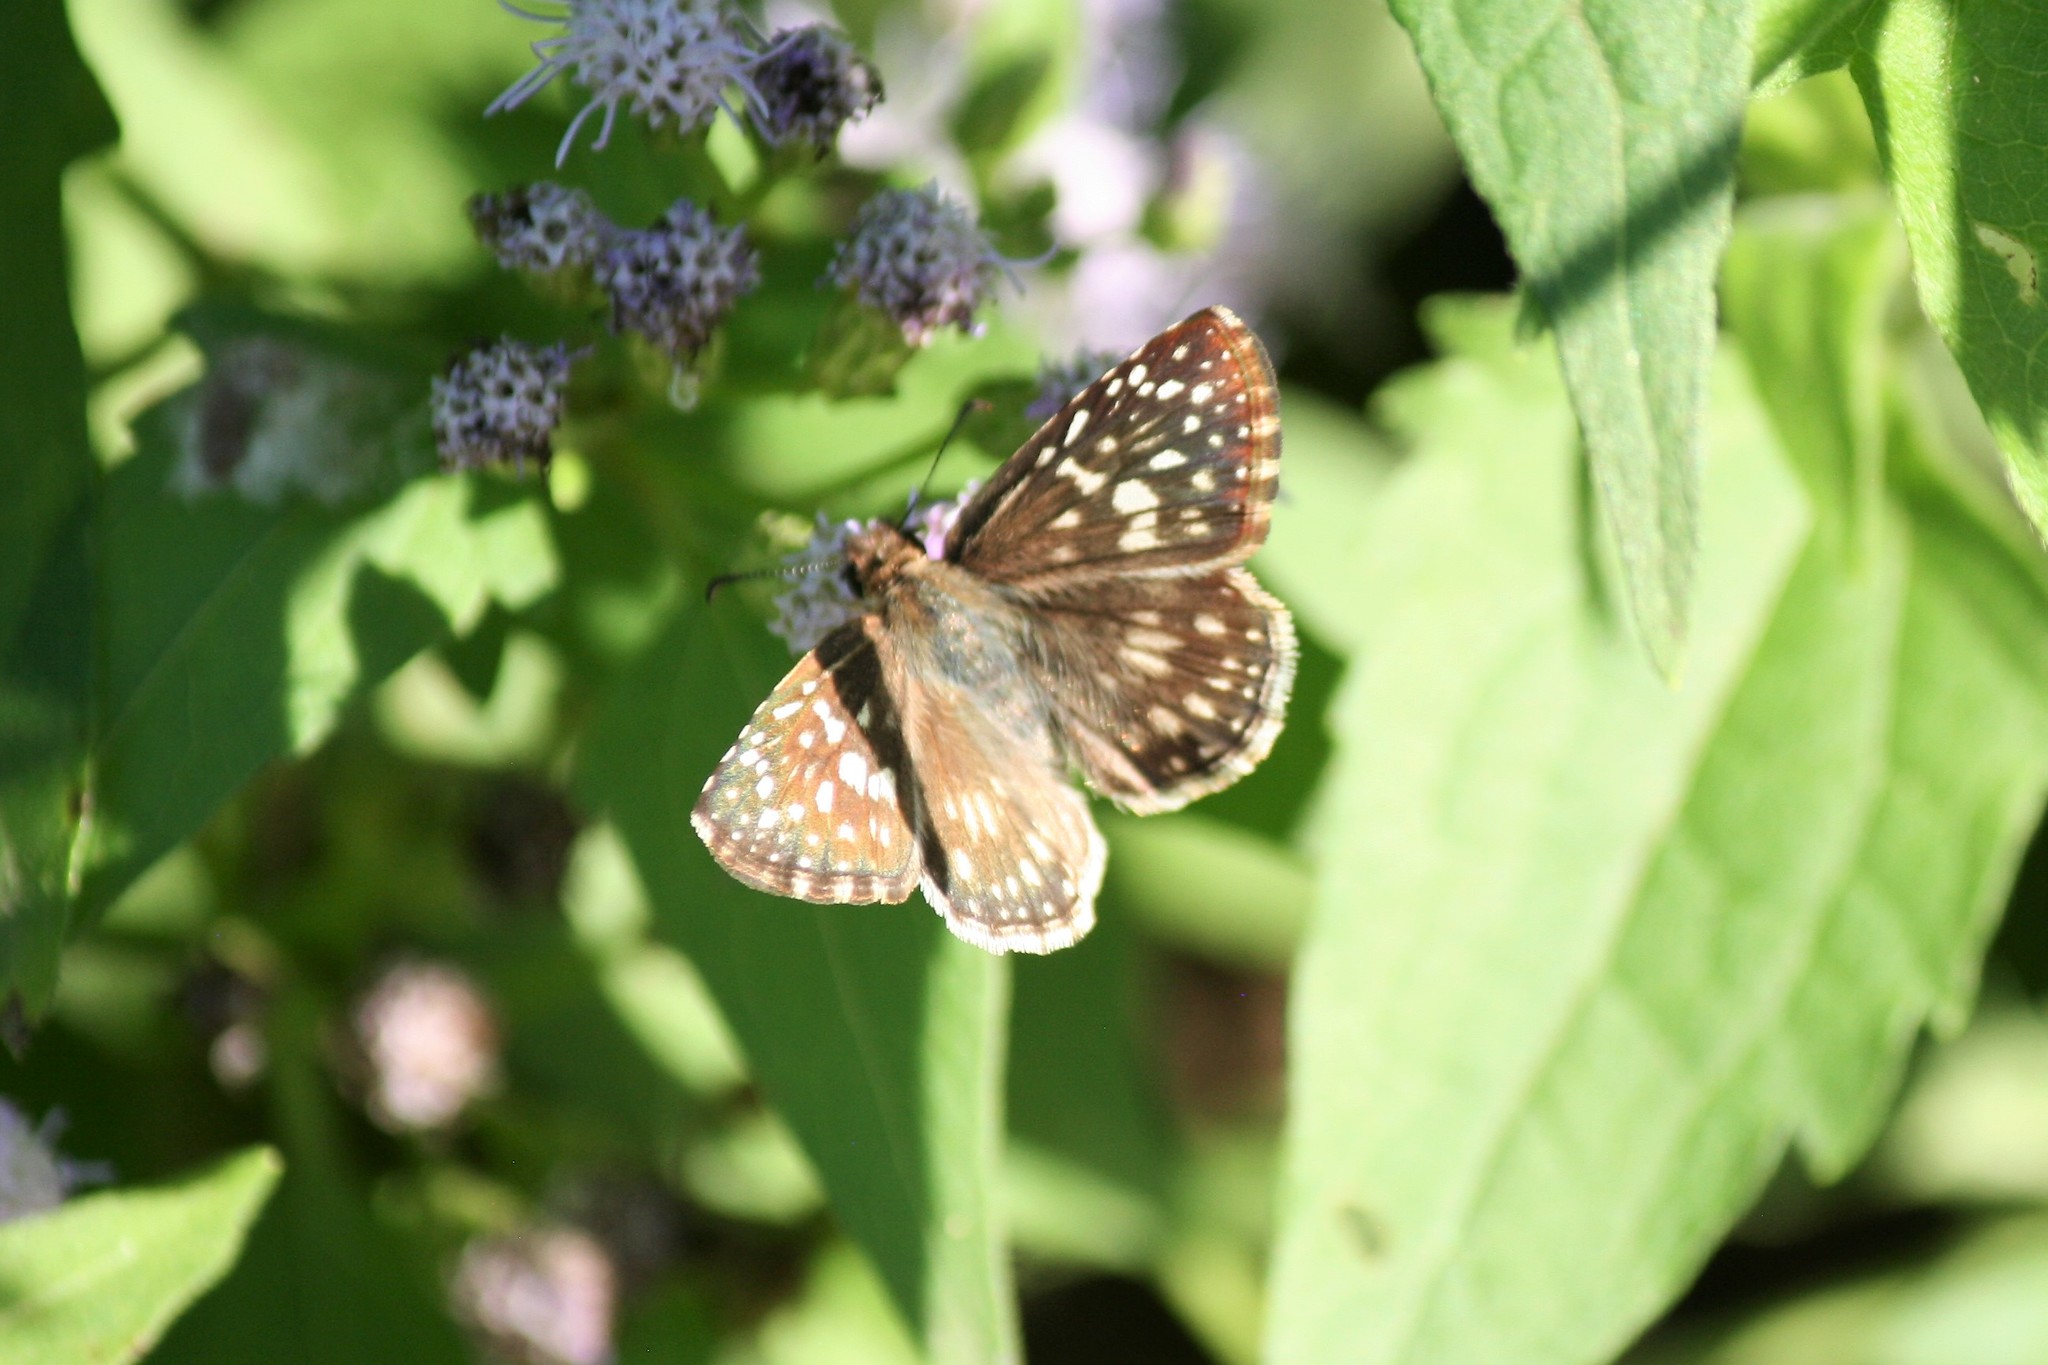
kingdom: Animalia
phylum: Arthropoda
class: Insecta
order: Lepidoptera
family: Hesperiidae
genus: Pyrgus
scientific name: Pyrgus oileus
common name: Tropical checkered-skipper
